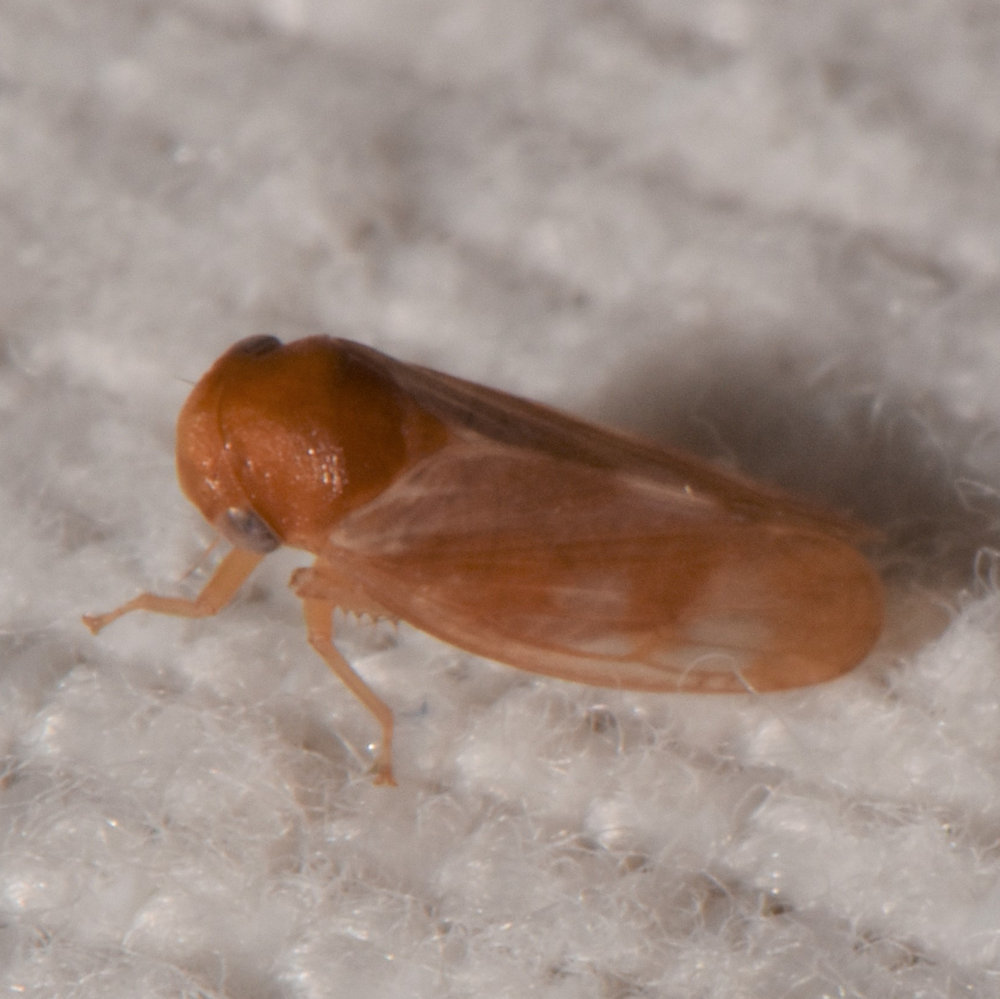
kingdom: Animalia
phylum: Arthropoda
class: Insecta
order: Hemiptera
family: Cicadellidae
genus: Oncopsis
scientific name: Oncopsis minor
